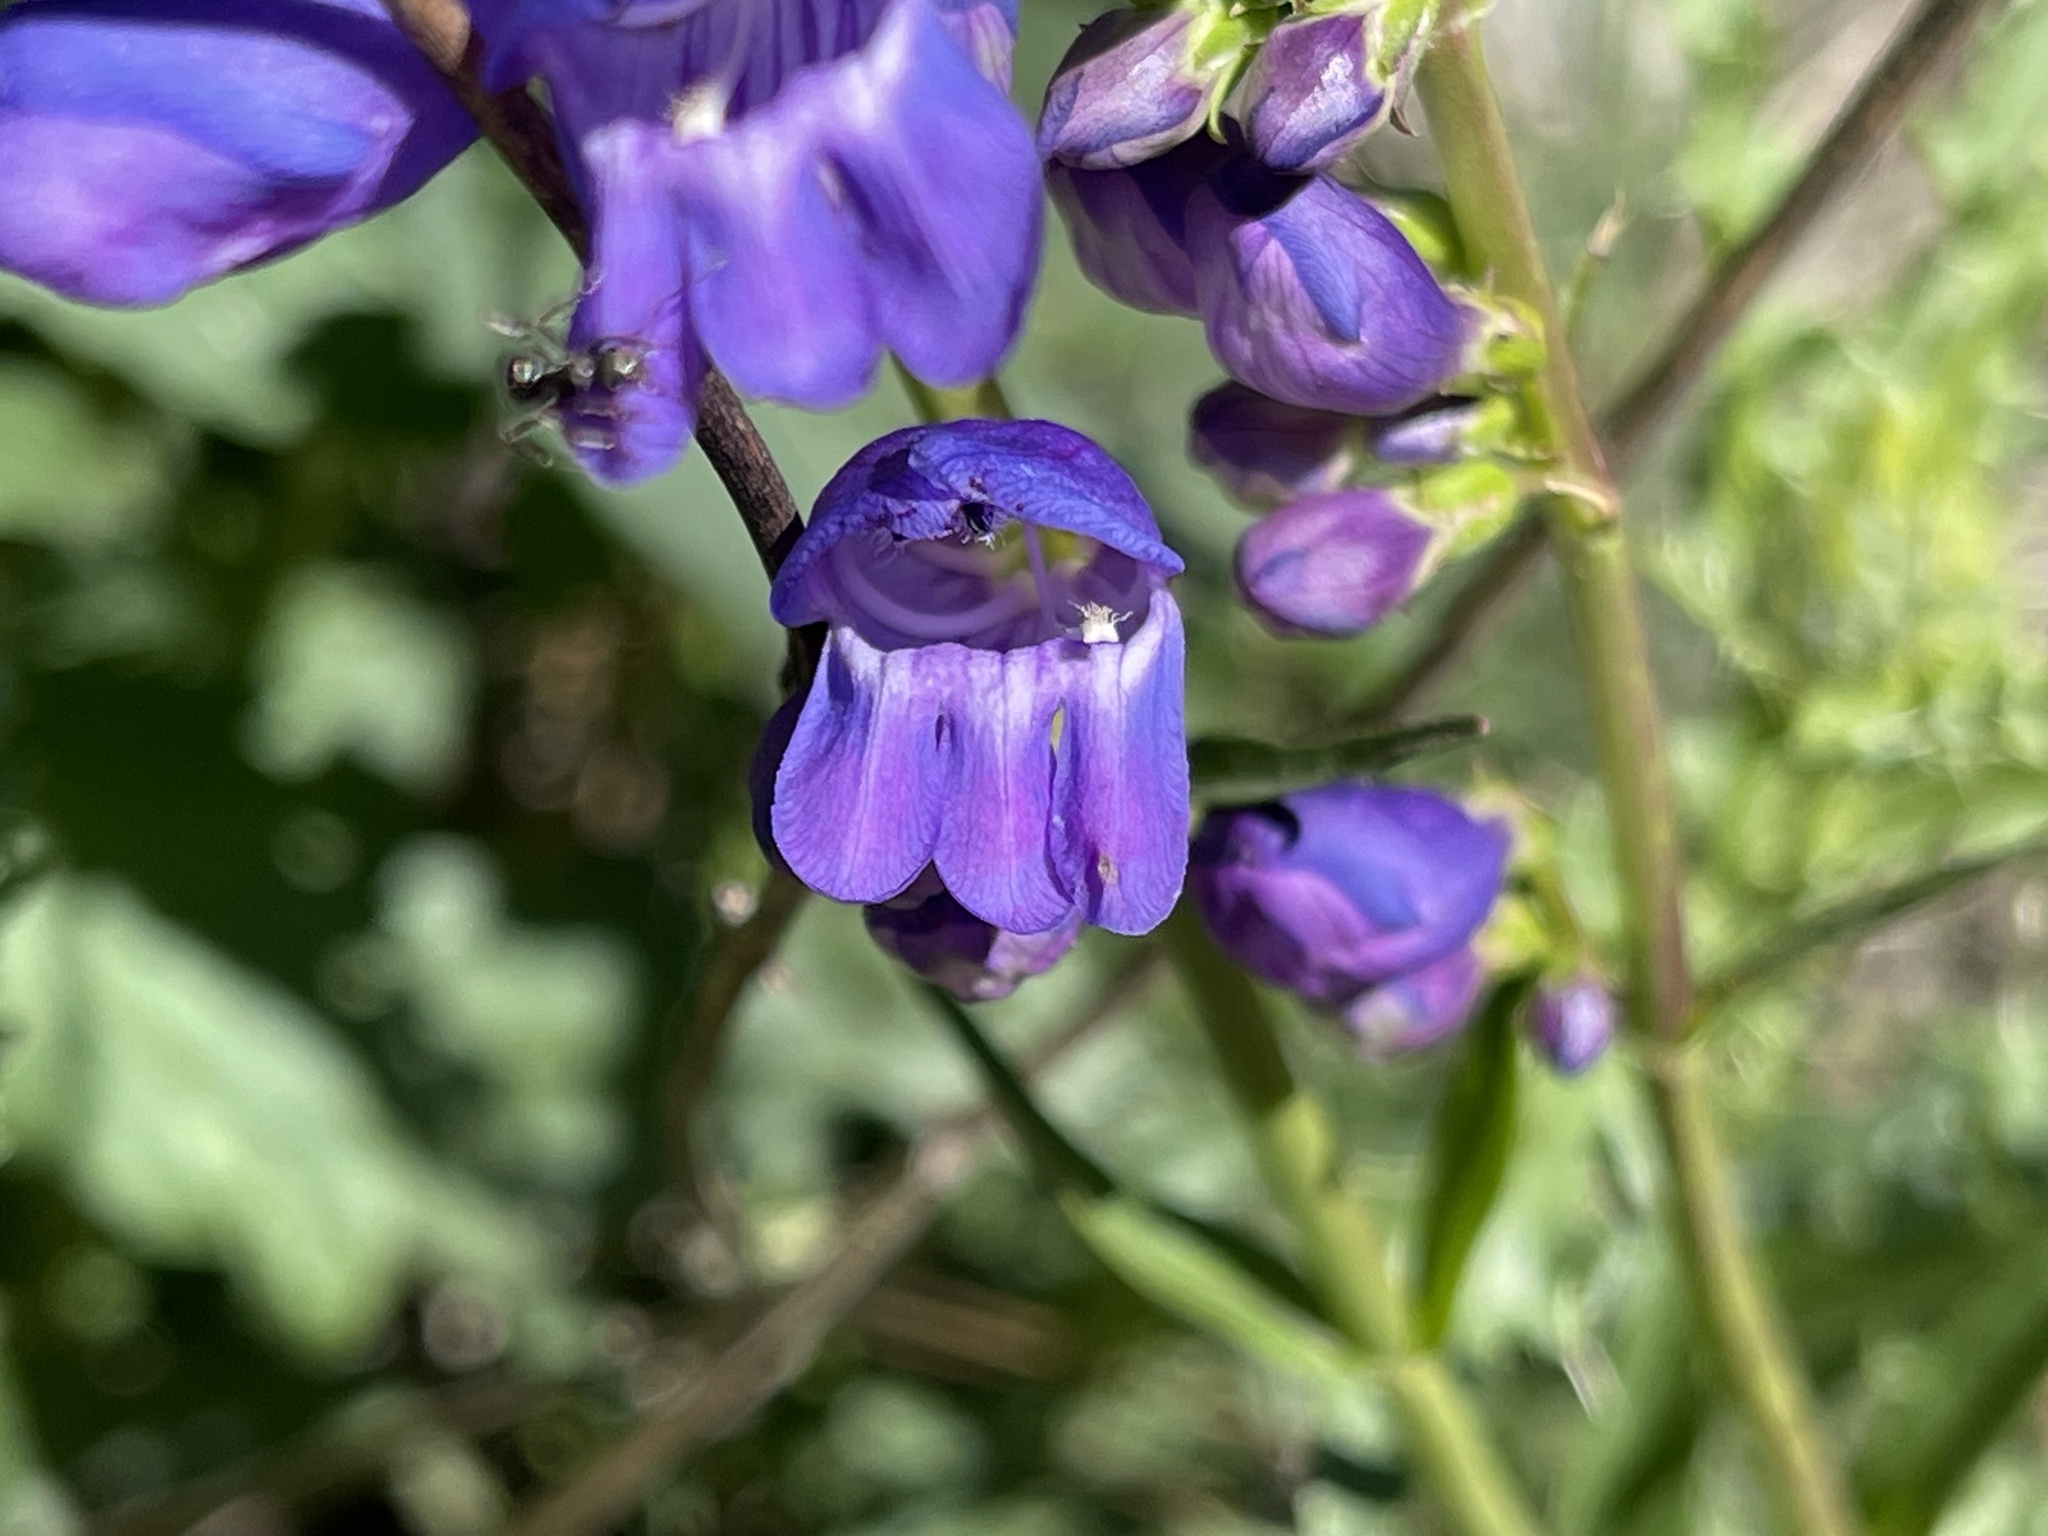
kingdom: Plantae
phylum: Tracheophyta
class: Magnoliopsida
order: Lamiales
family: Plantaginaceae
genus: Penstemon
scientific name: Penstemon strictus
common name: Rocky mountain penstemon
